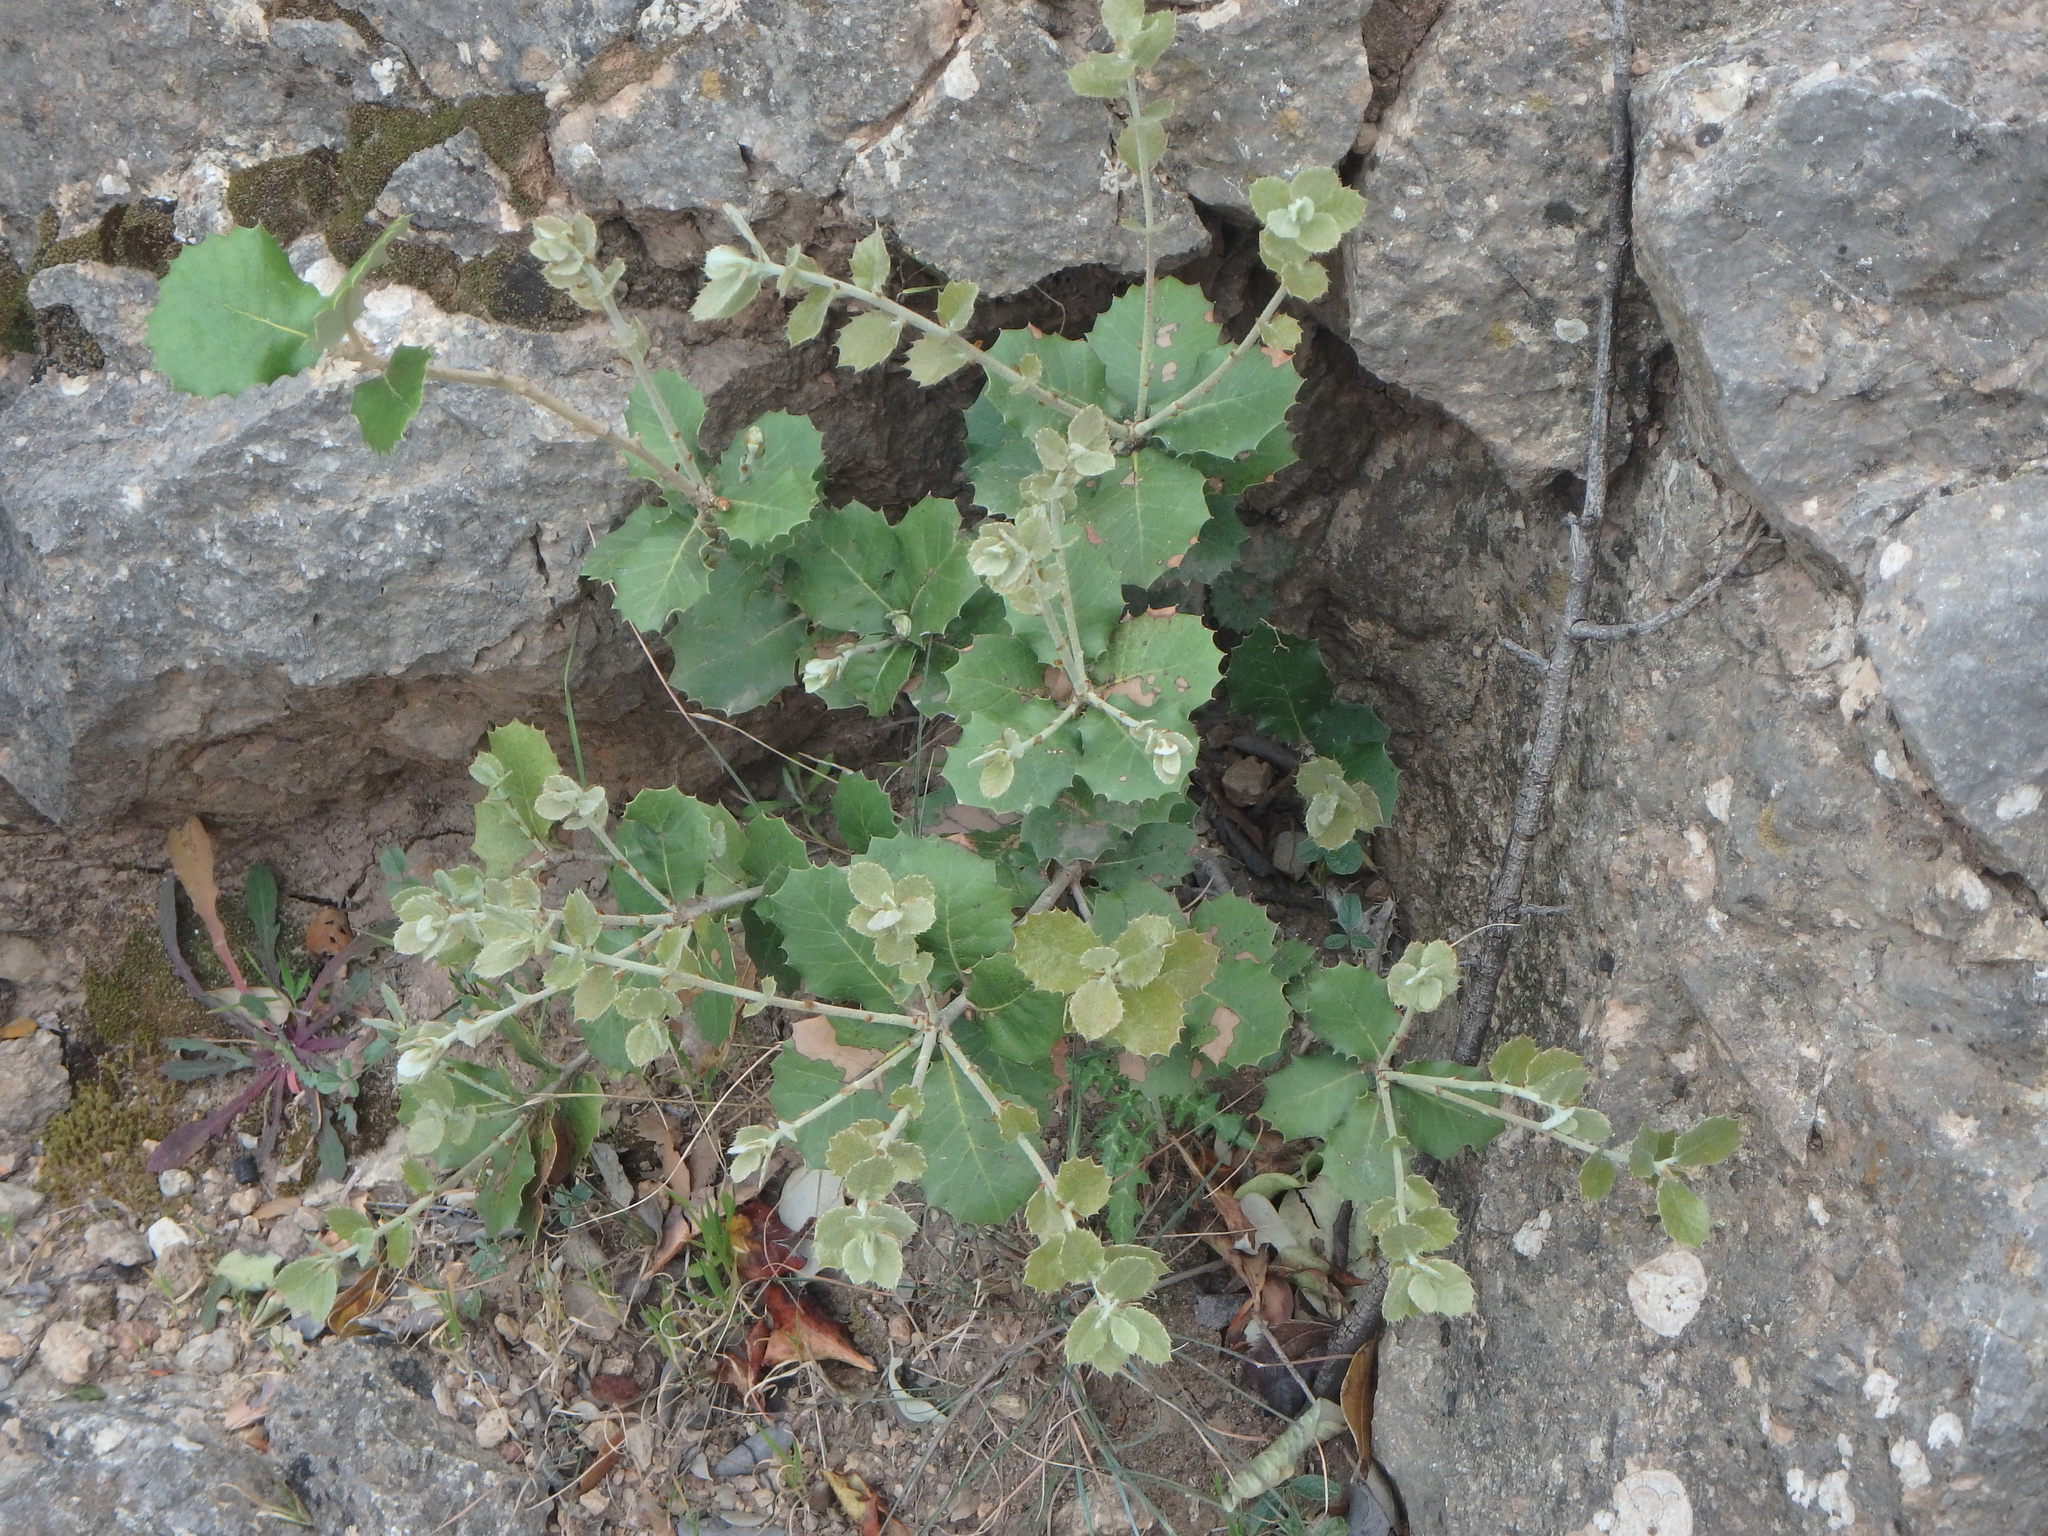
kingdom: Plantae
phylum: Tracheophyta
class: Magnoliopsida
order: Fagales
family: Fagaceae
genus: Quercus
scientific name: Quercus ilex
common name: Evergreen oak
